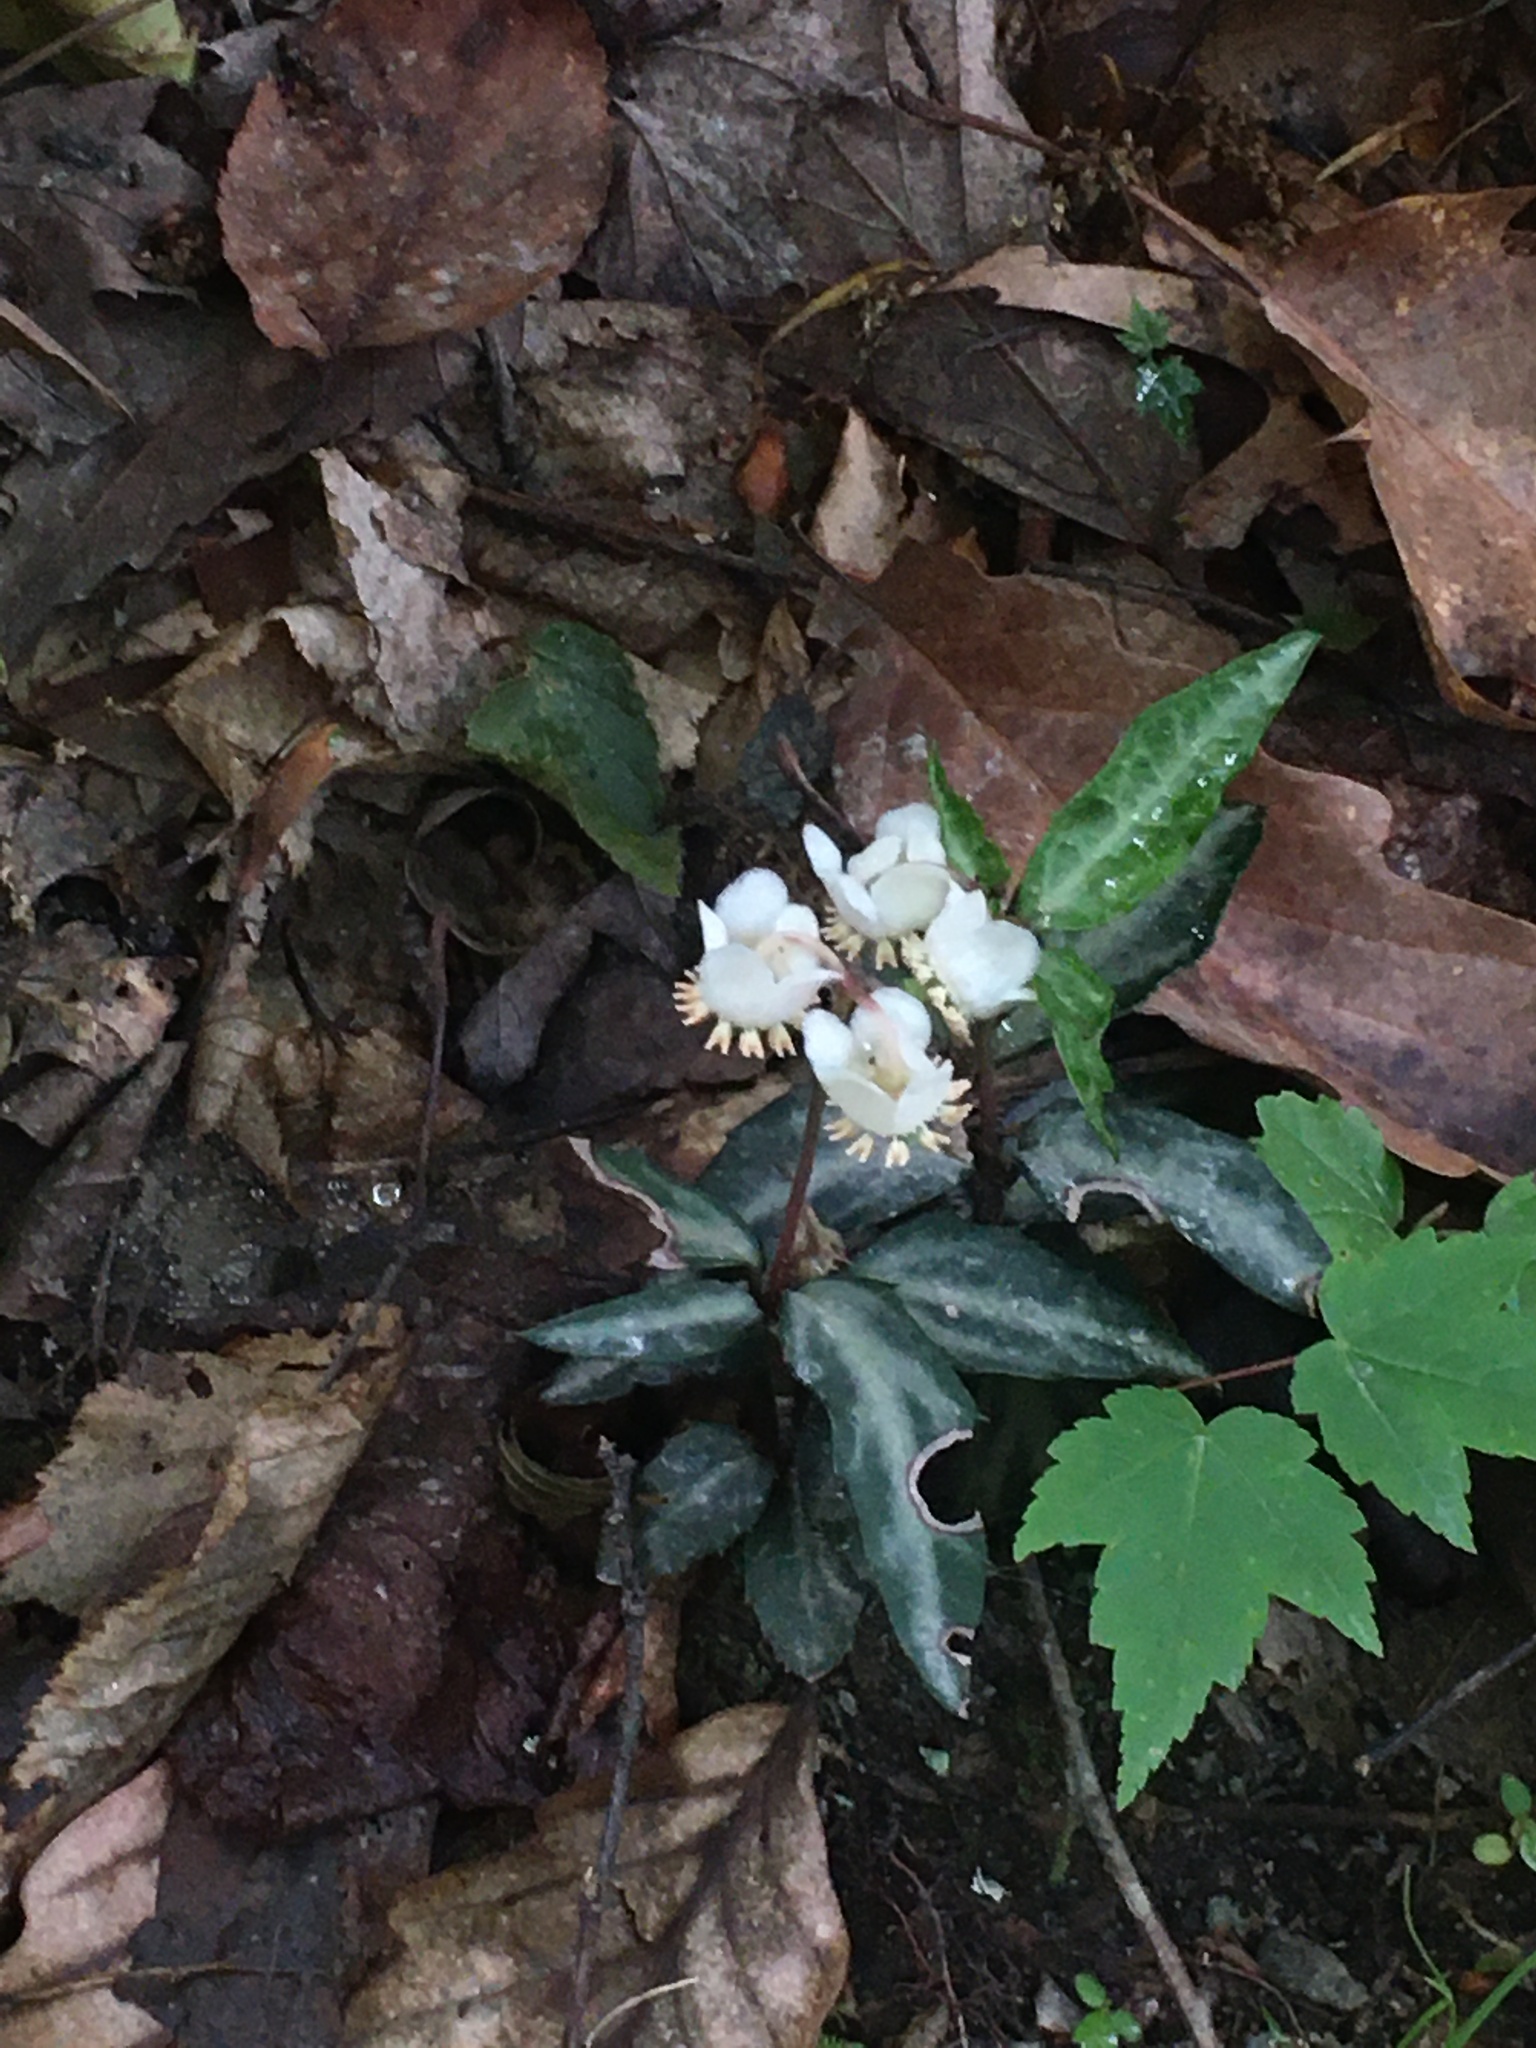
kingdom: Plantae
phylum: Tracheophyta
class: Magnoliopsida
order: Ericales
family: Ericaceae
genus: Chimaphila
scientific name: Chimaphila maculata
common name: Spotted pipsissewa
